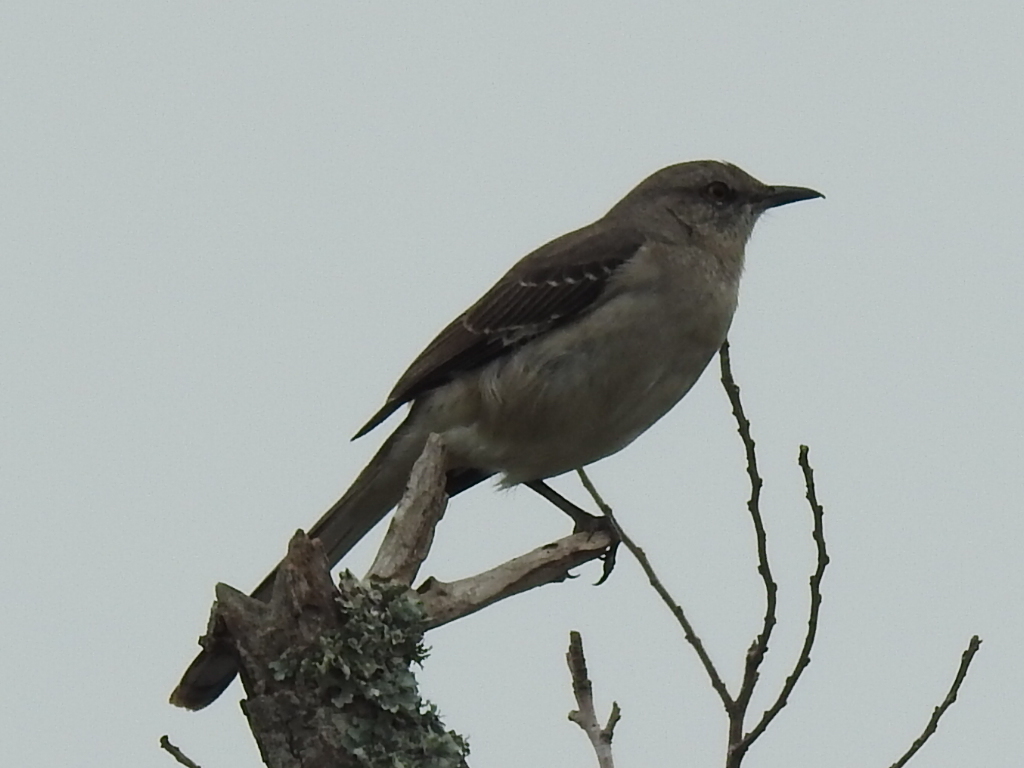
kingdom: Animalia
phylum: Chordata
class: Aves
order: Passeriformes
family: Mimidae
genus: Mimus
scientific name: Mimus polyglottos
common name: Northern mockingbird
